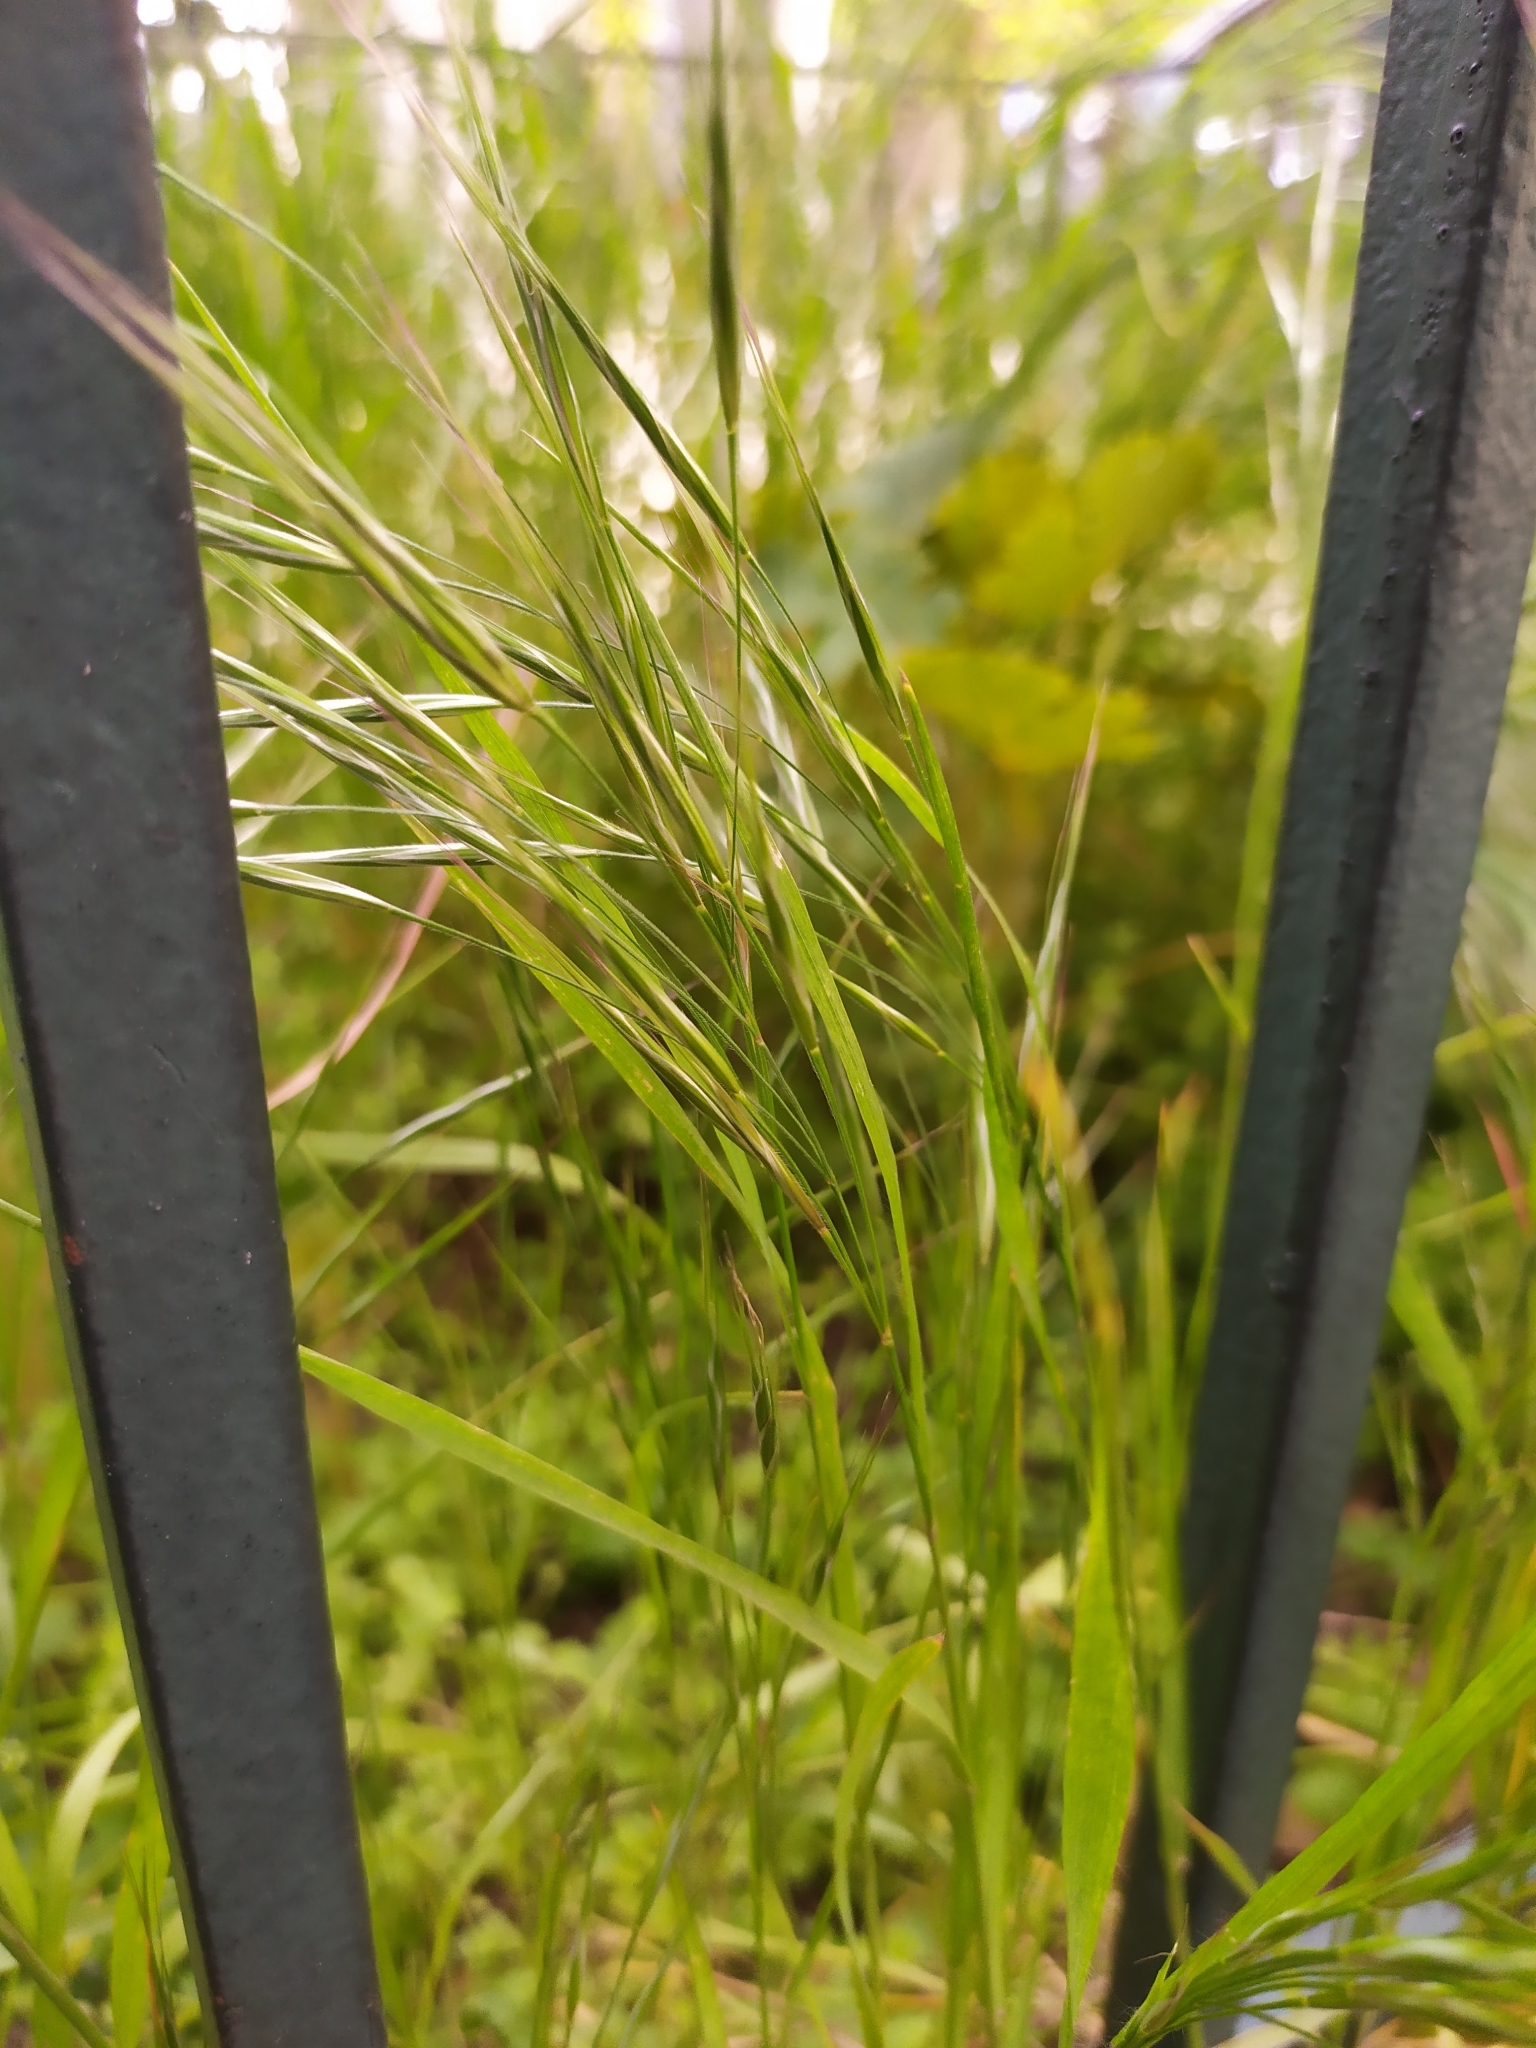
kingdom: Plantae
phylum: Tracheophyta
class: Liliopsida
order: Poales
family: Poaceae
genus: Bromus
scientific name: Bromus sterilis
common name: Poverty brome
